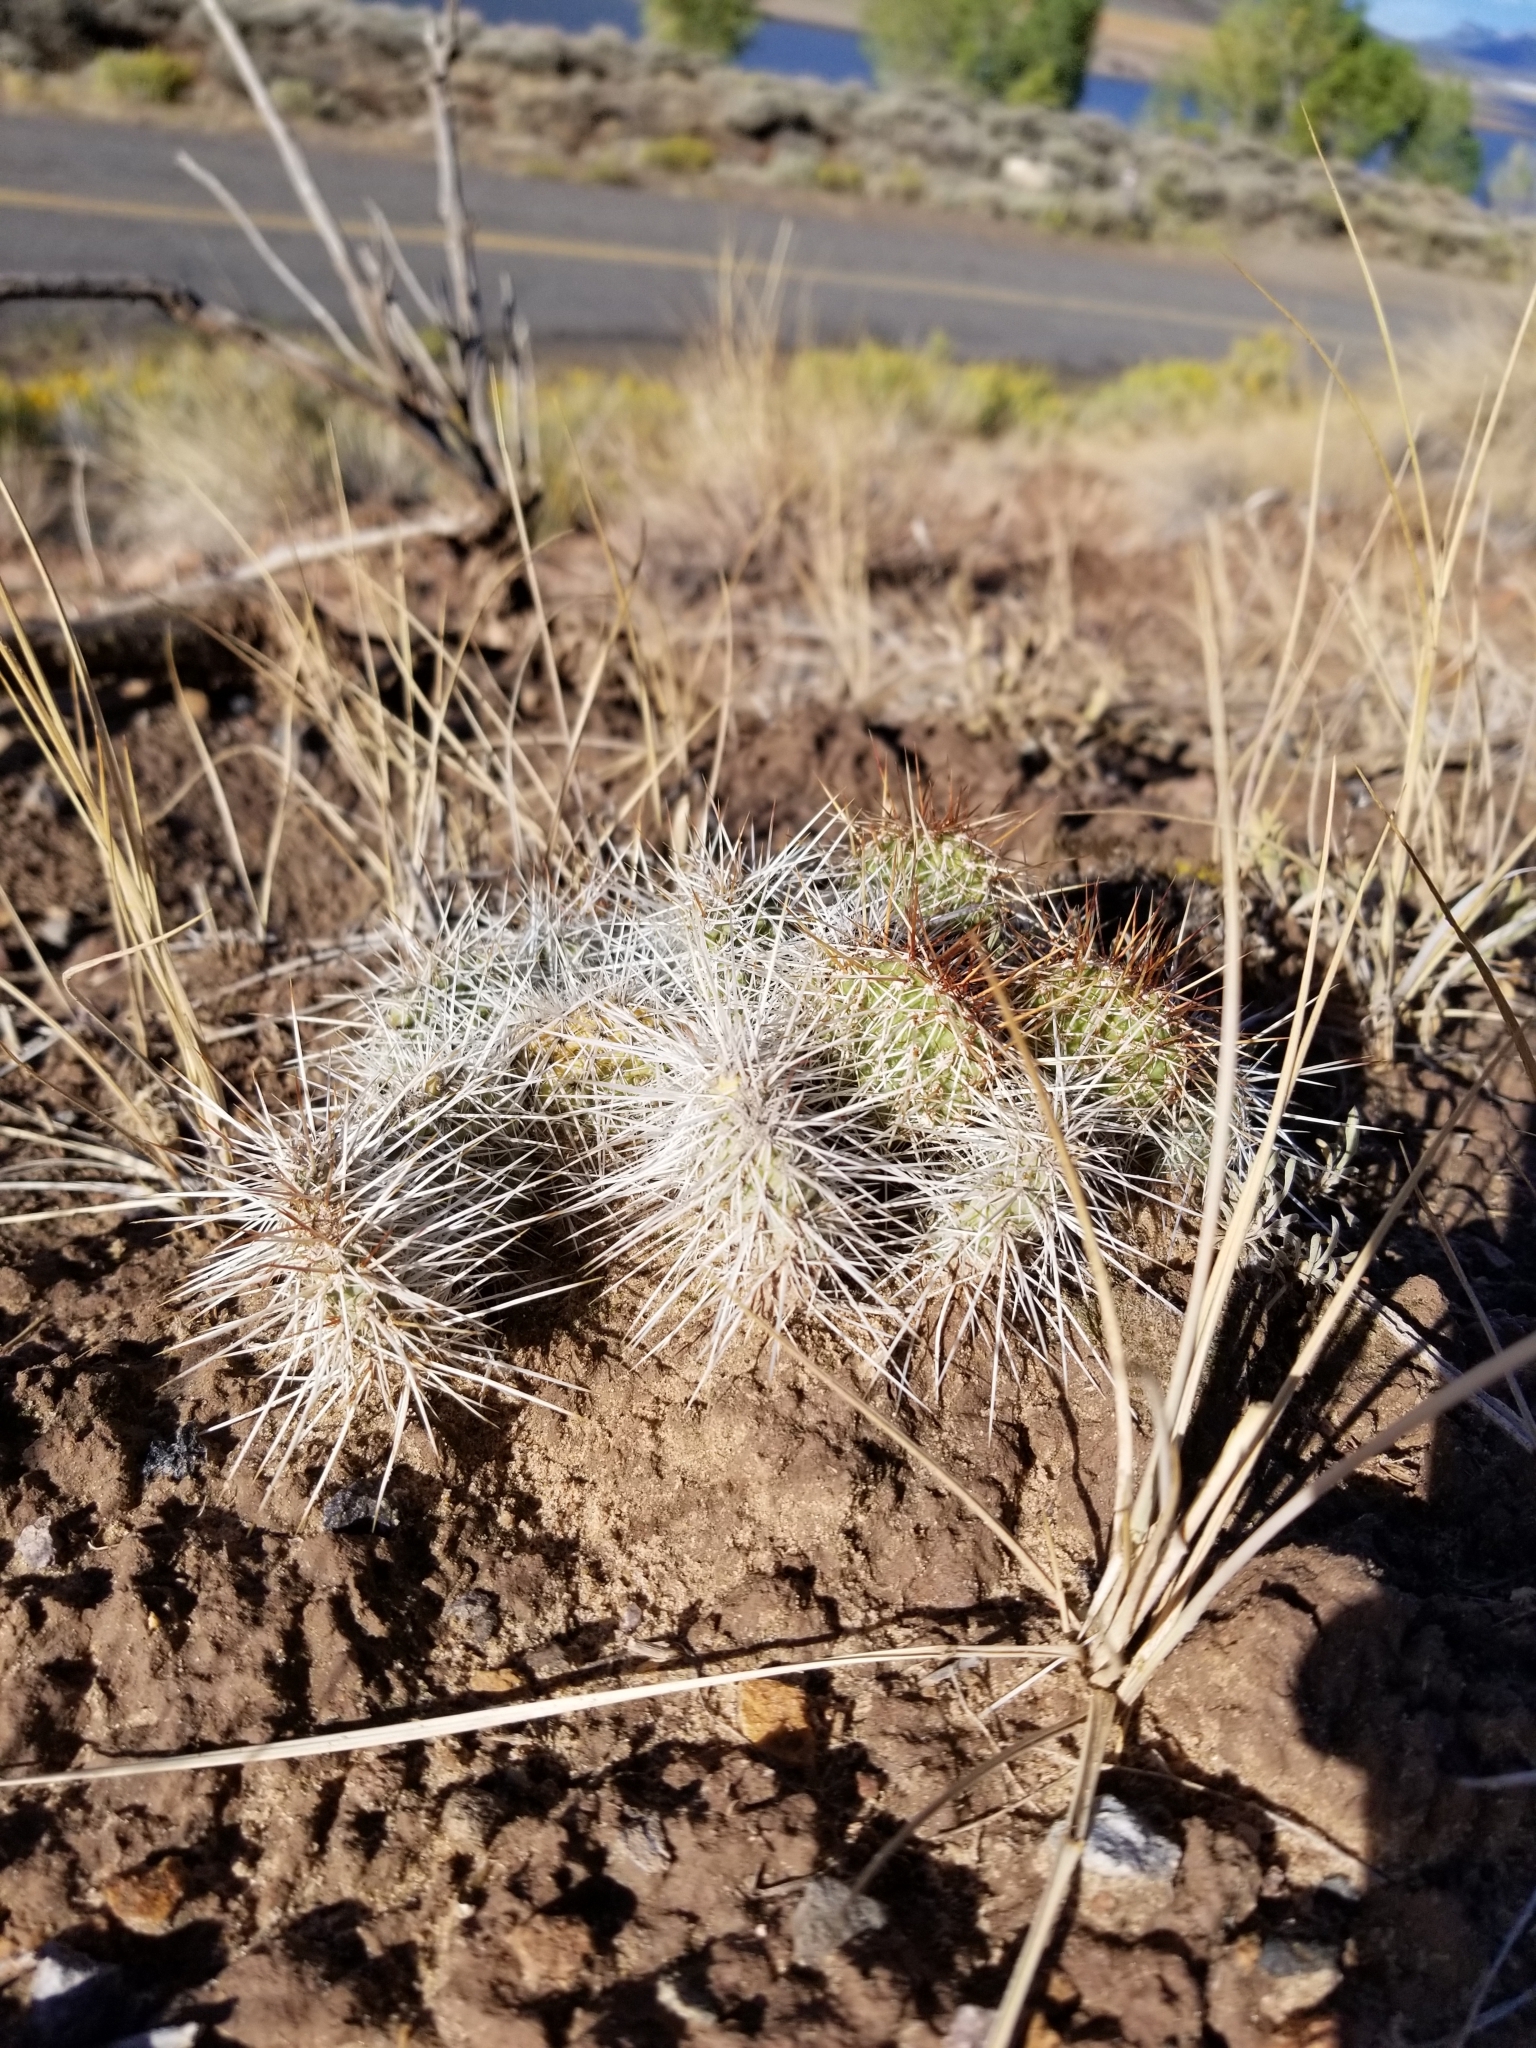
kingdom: Plantae
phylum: Tracheophyta
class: Magnoliopsida
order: Caryophyllales
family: Cactaceae
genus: Opuntia
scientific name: Opuntia polyacantha
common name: Plains prickly-pear
